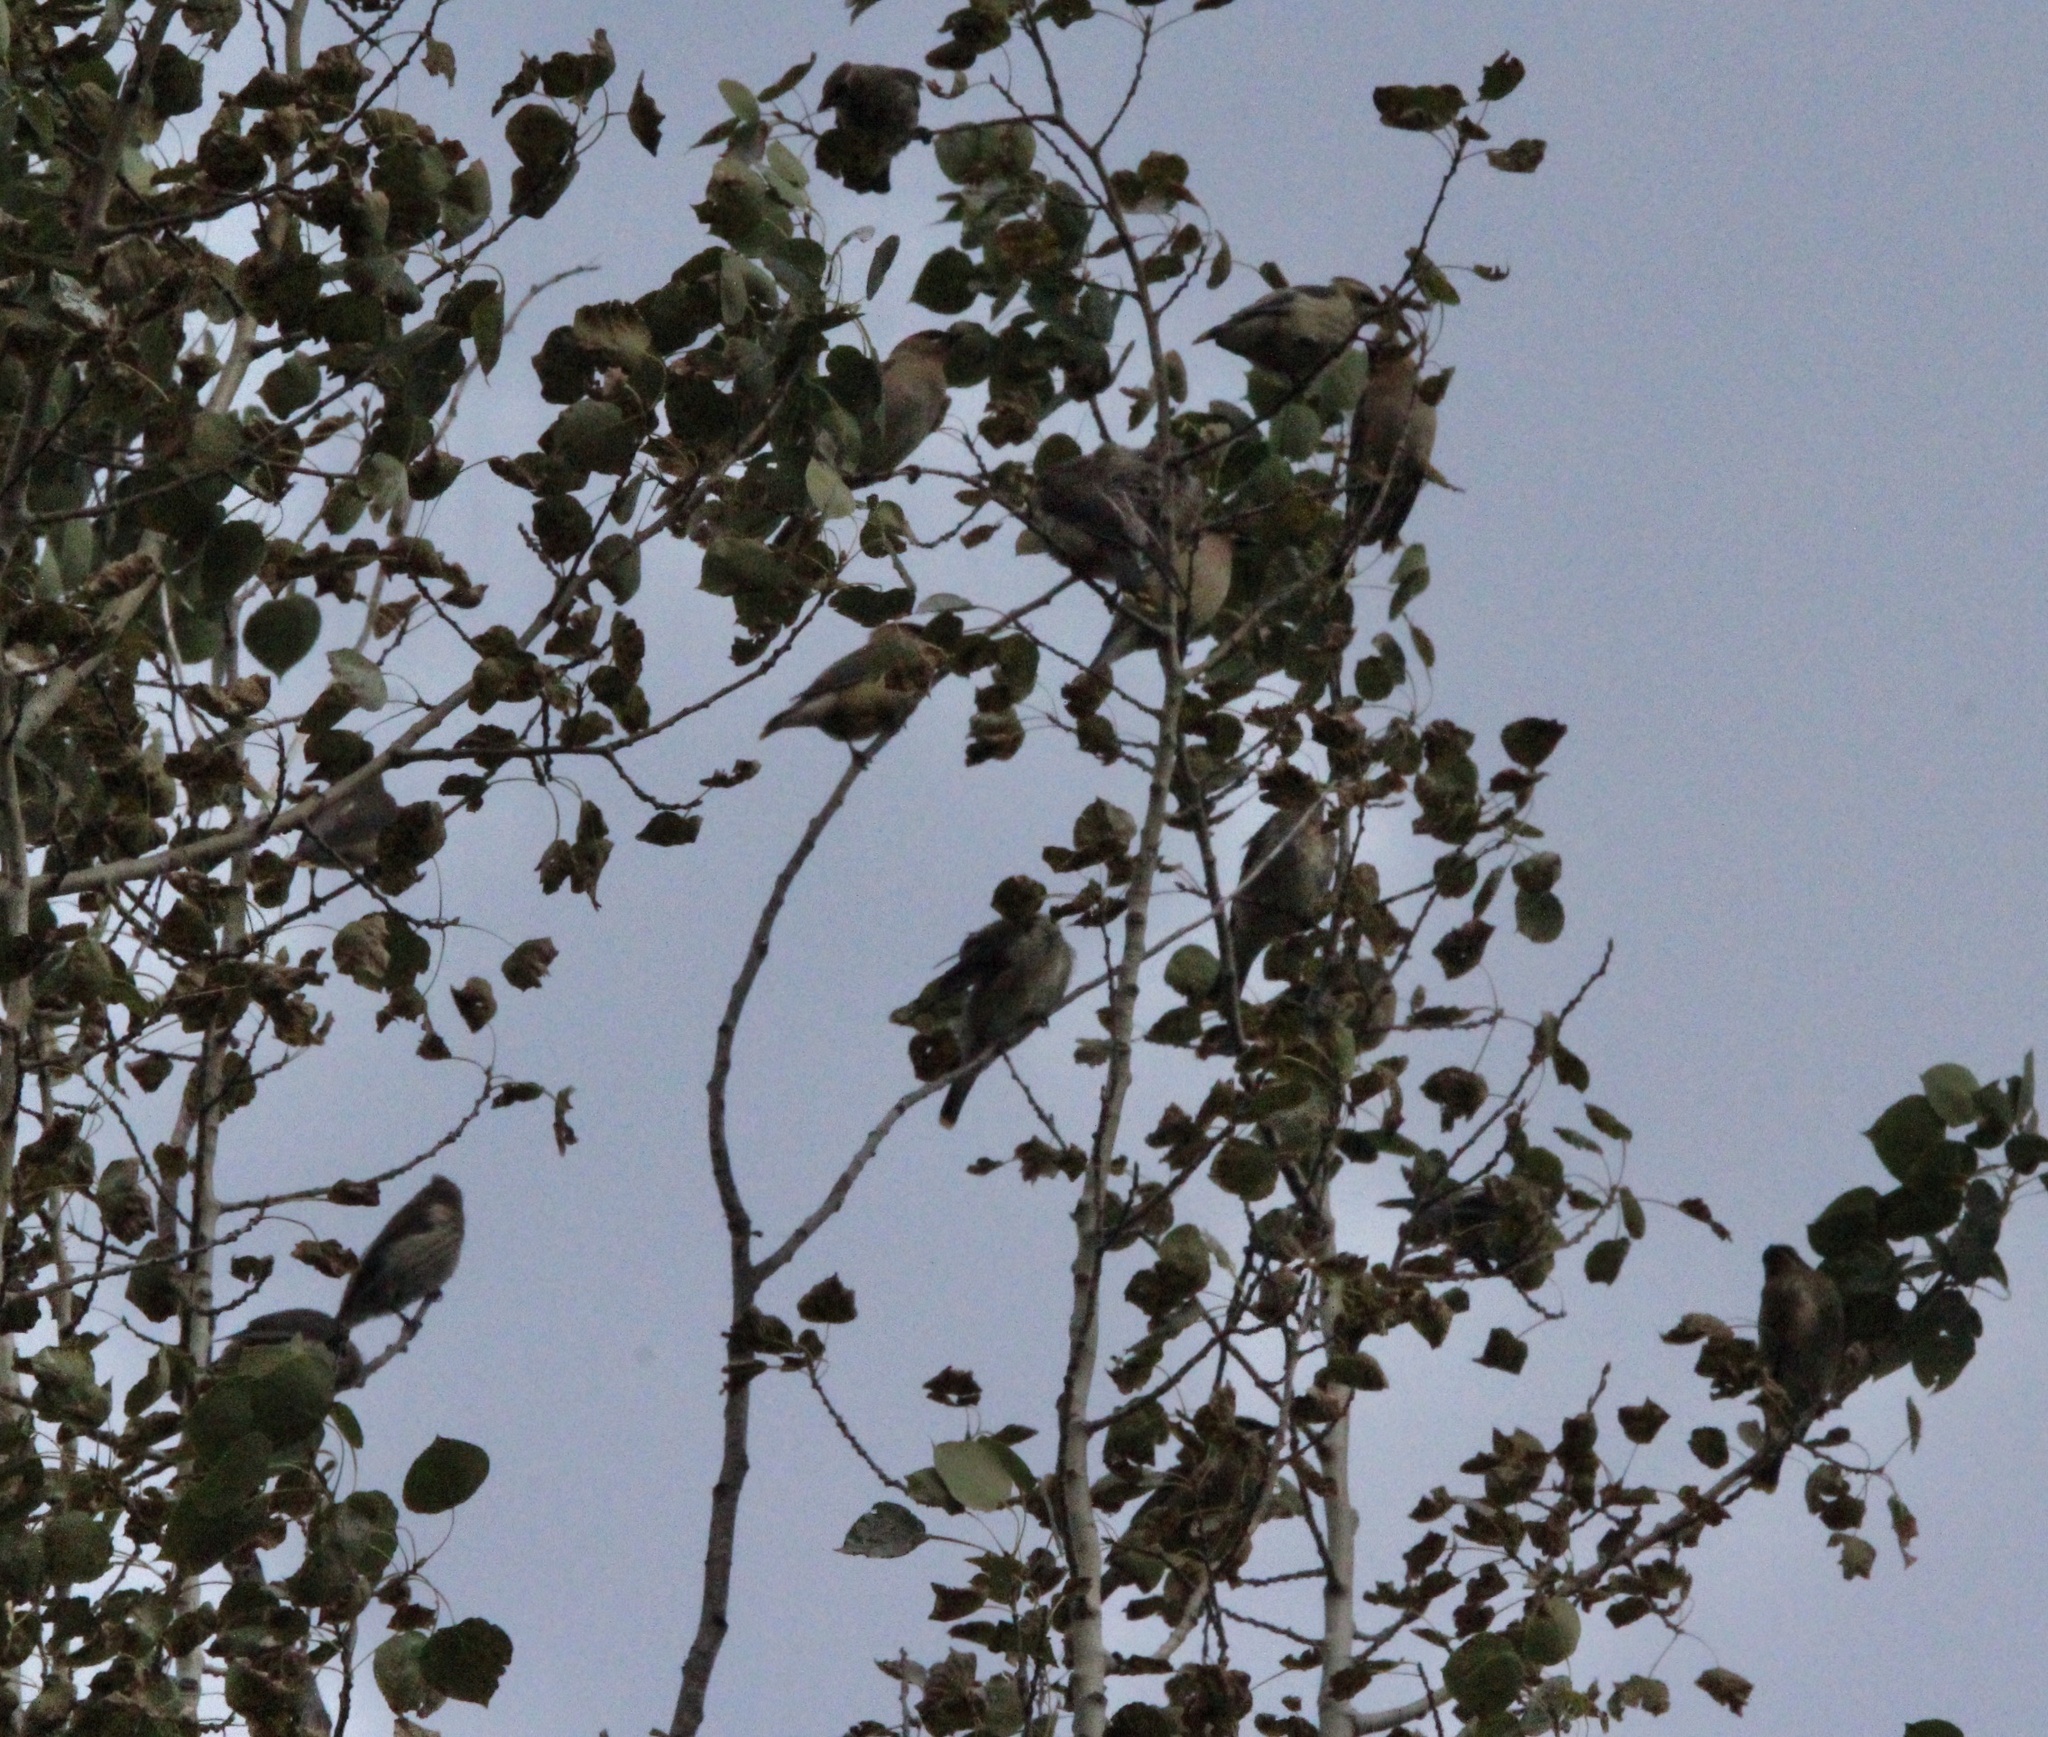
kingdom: Animalia
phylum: Chordata
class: Aves
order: Passeriformes
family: Bombycillidae
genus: Bombycilla
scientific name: Bombycilla cedrorum
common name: Cedar waxwing
